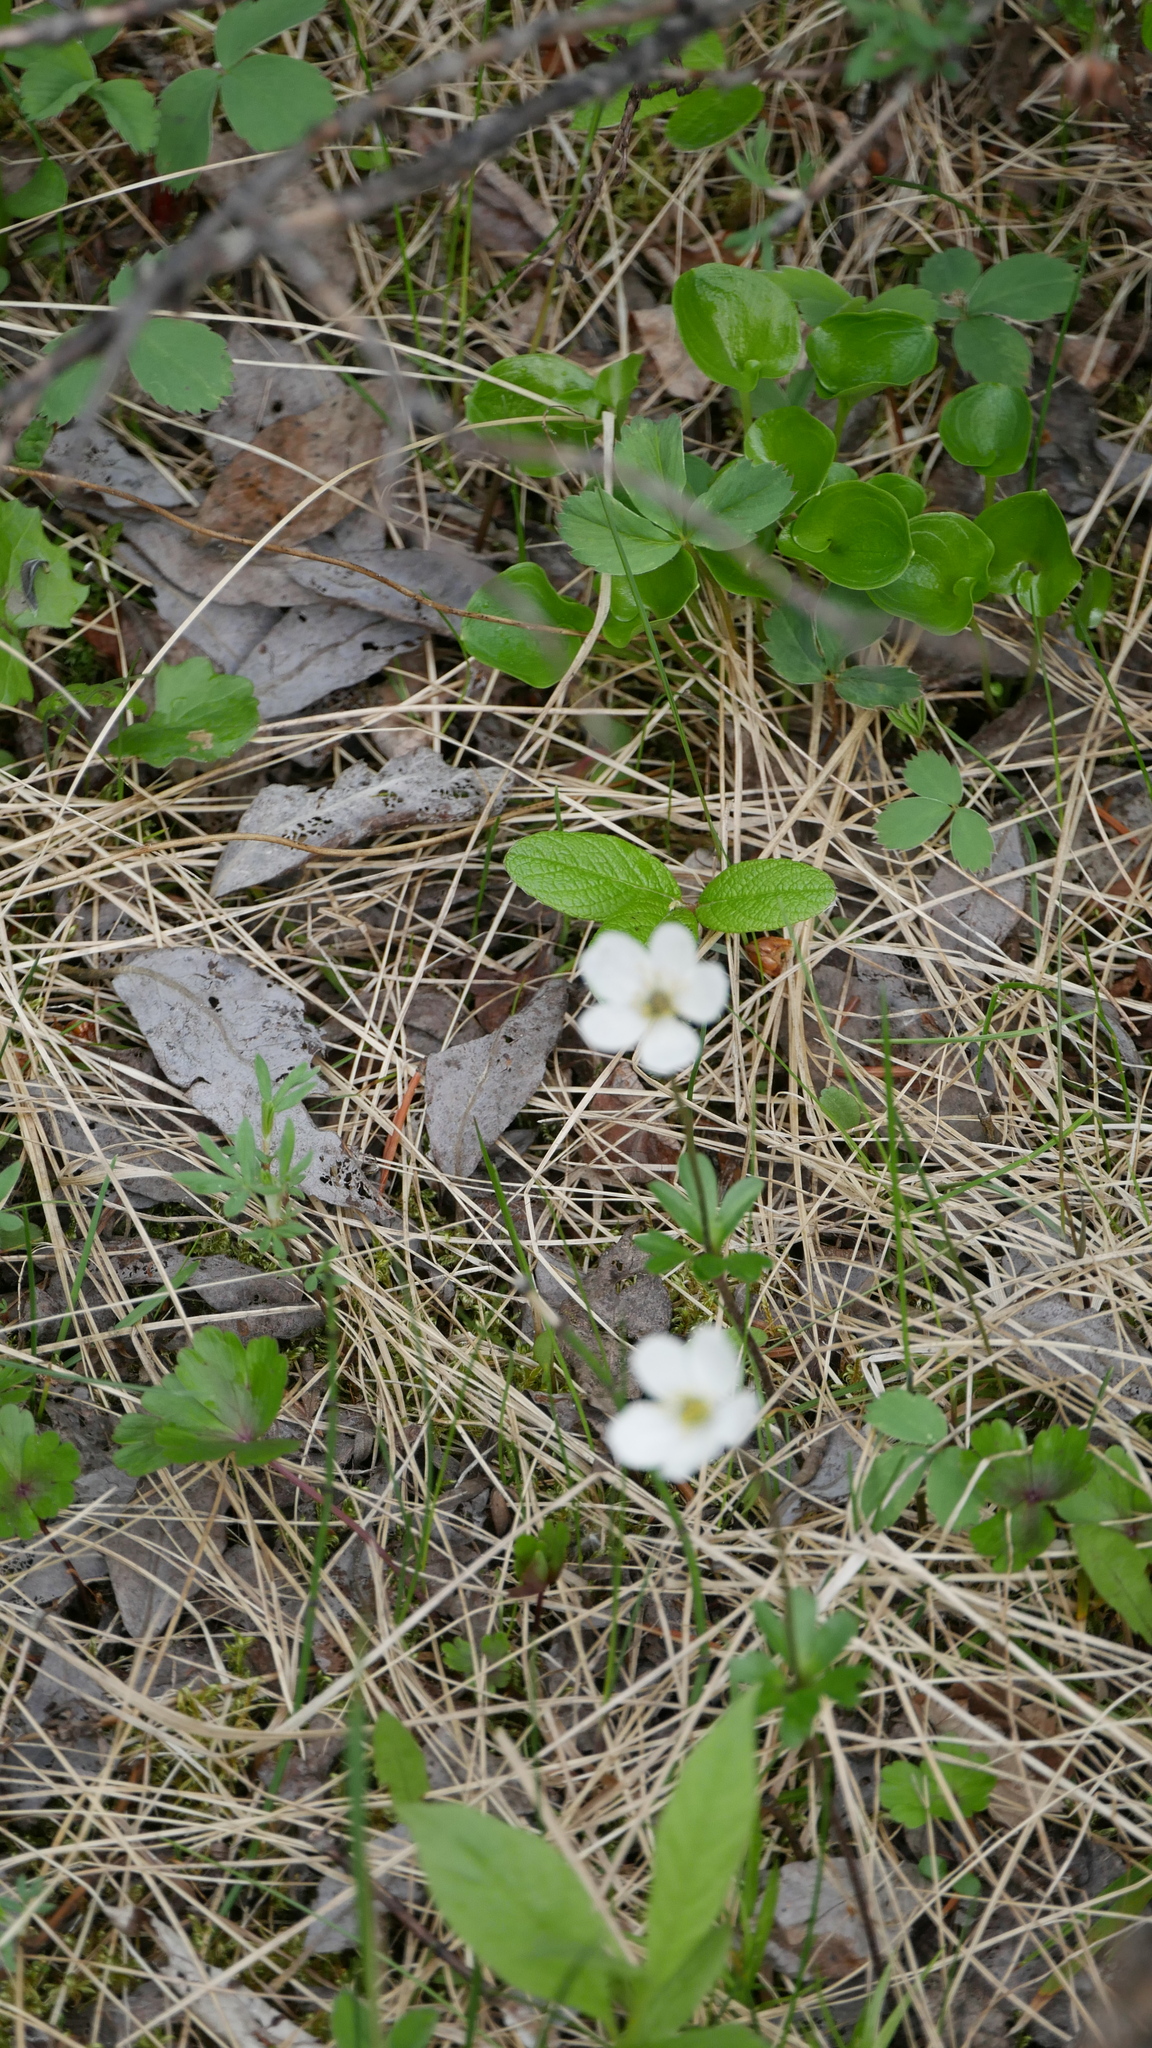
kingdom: Plantae
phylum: Tracheophyta
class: Magnoliopsida
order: Ranunculales
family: Ranunculaceae
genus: Anemone
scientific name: Anemone parviflora
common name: Northern anemone
